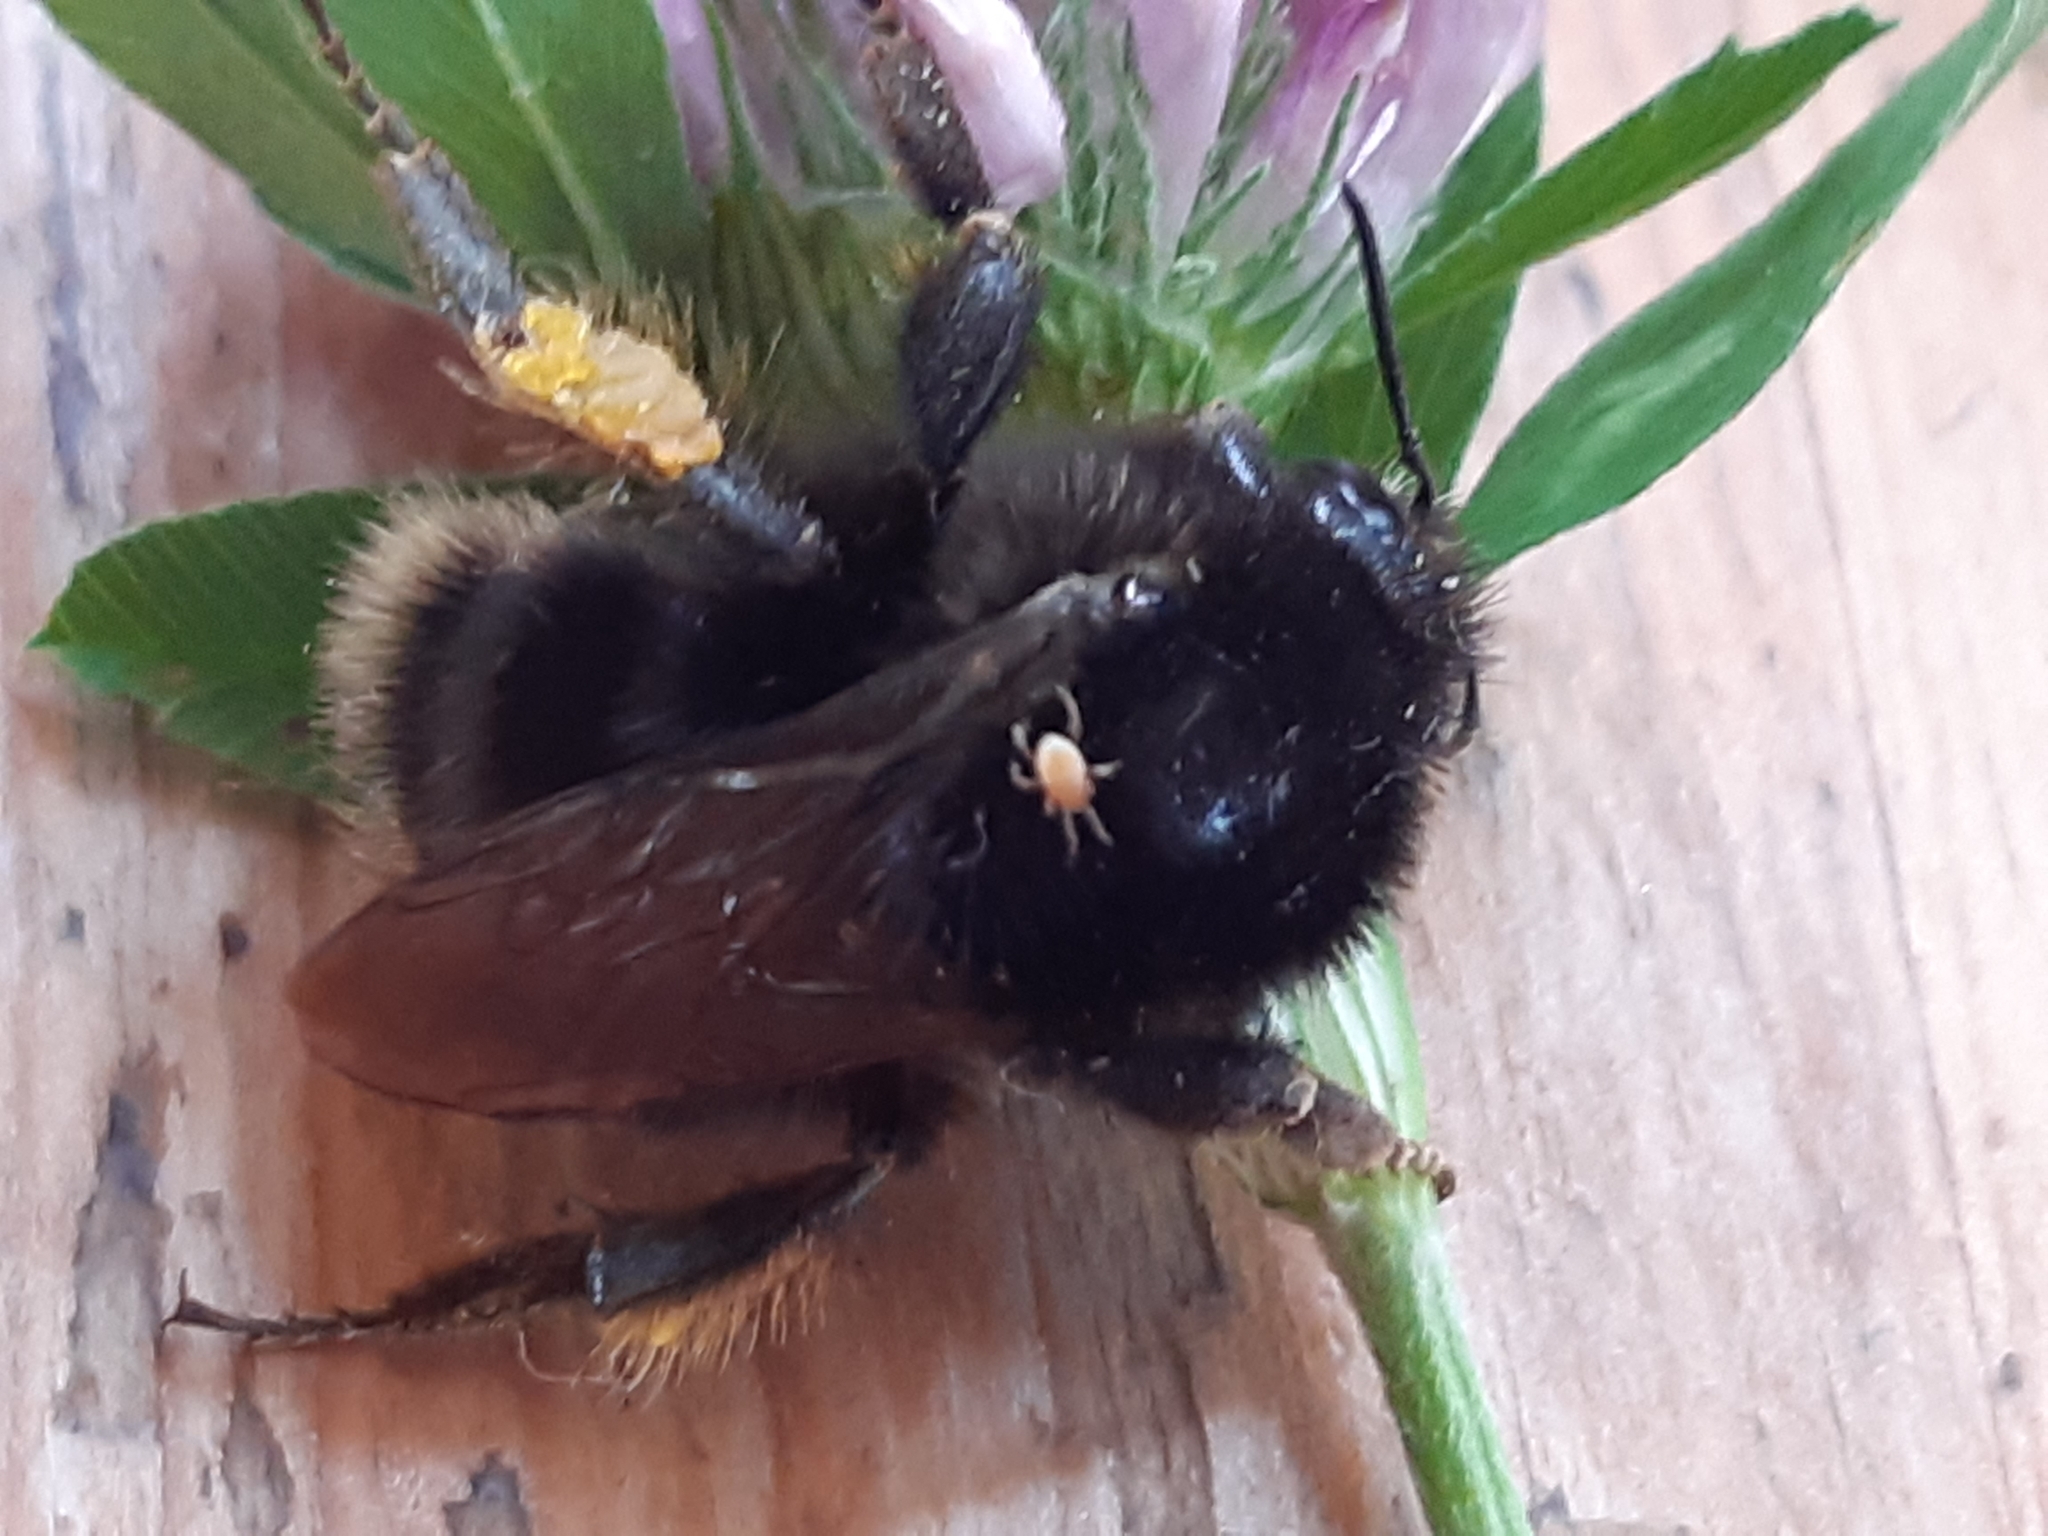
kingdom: Animalia
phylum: Arthropoda
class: Insecta
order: Hymenoptera
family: Apidae
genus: Bombus
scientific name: Bombus humilis
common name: Brown-banded carder-bee
